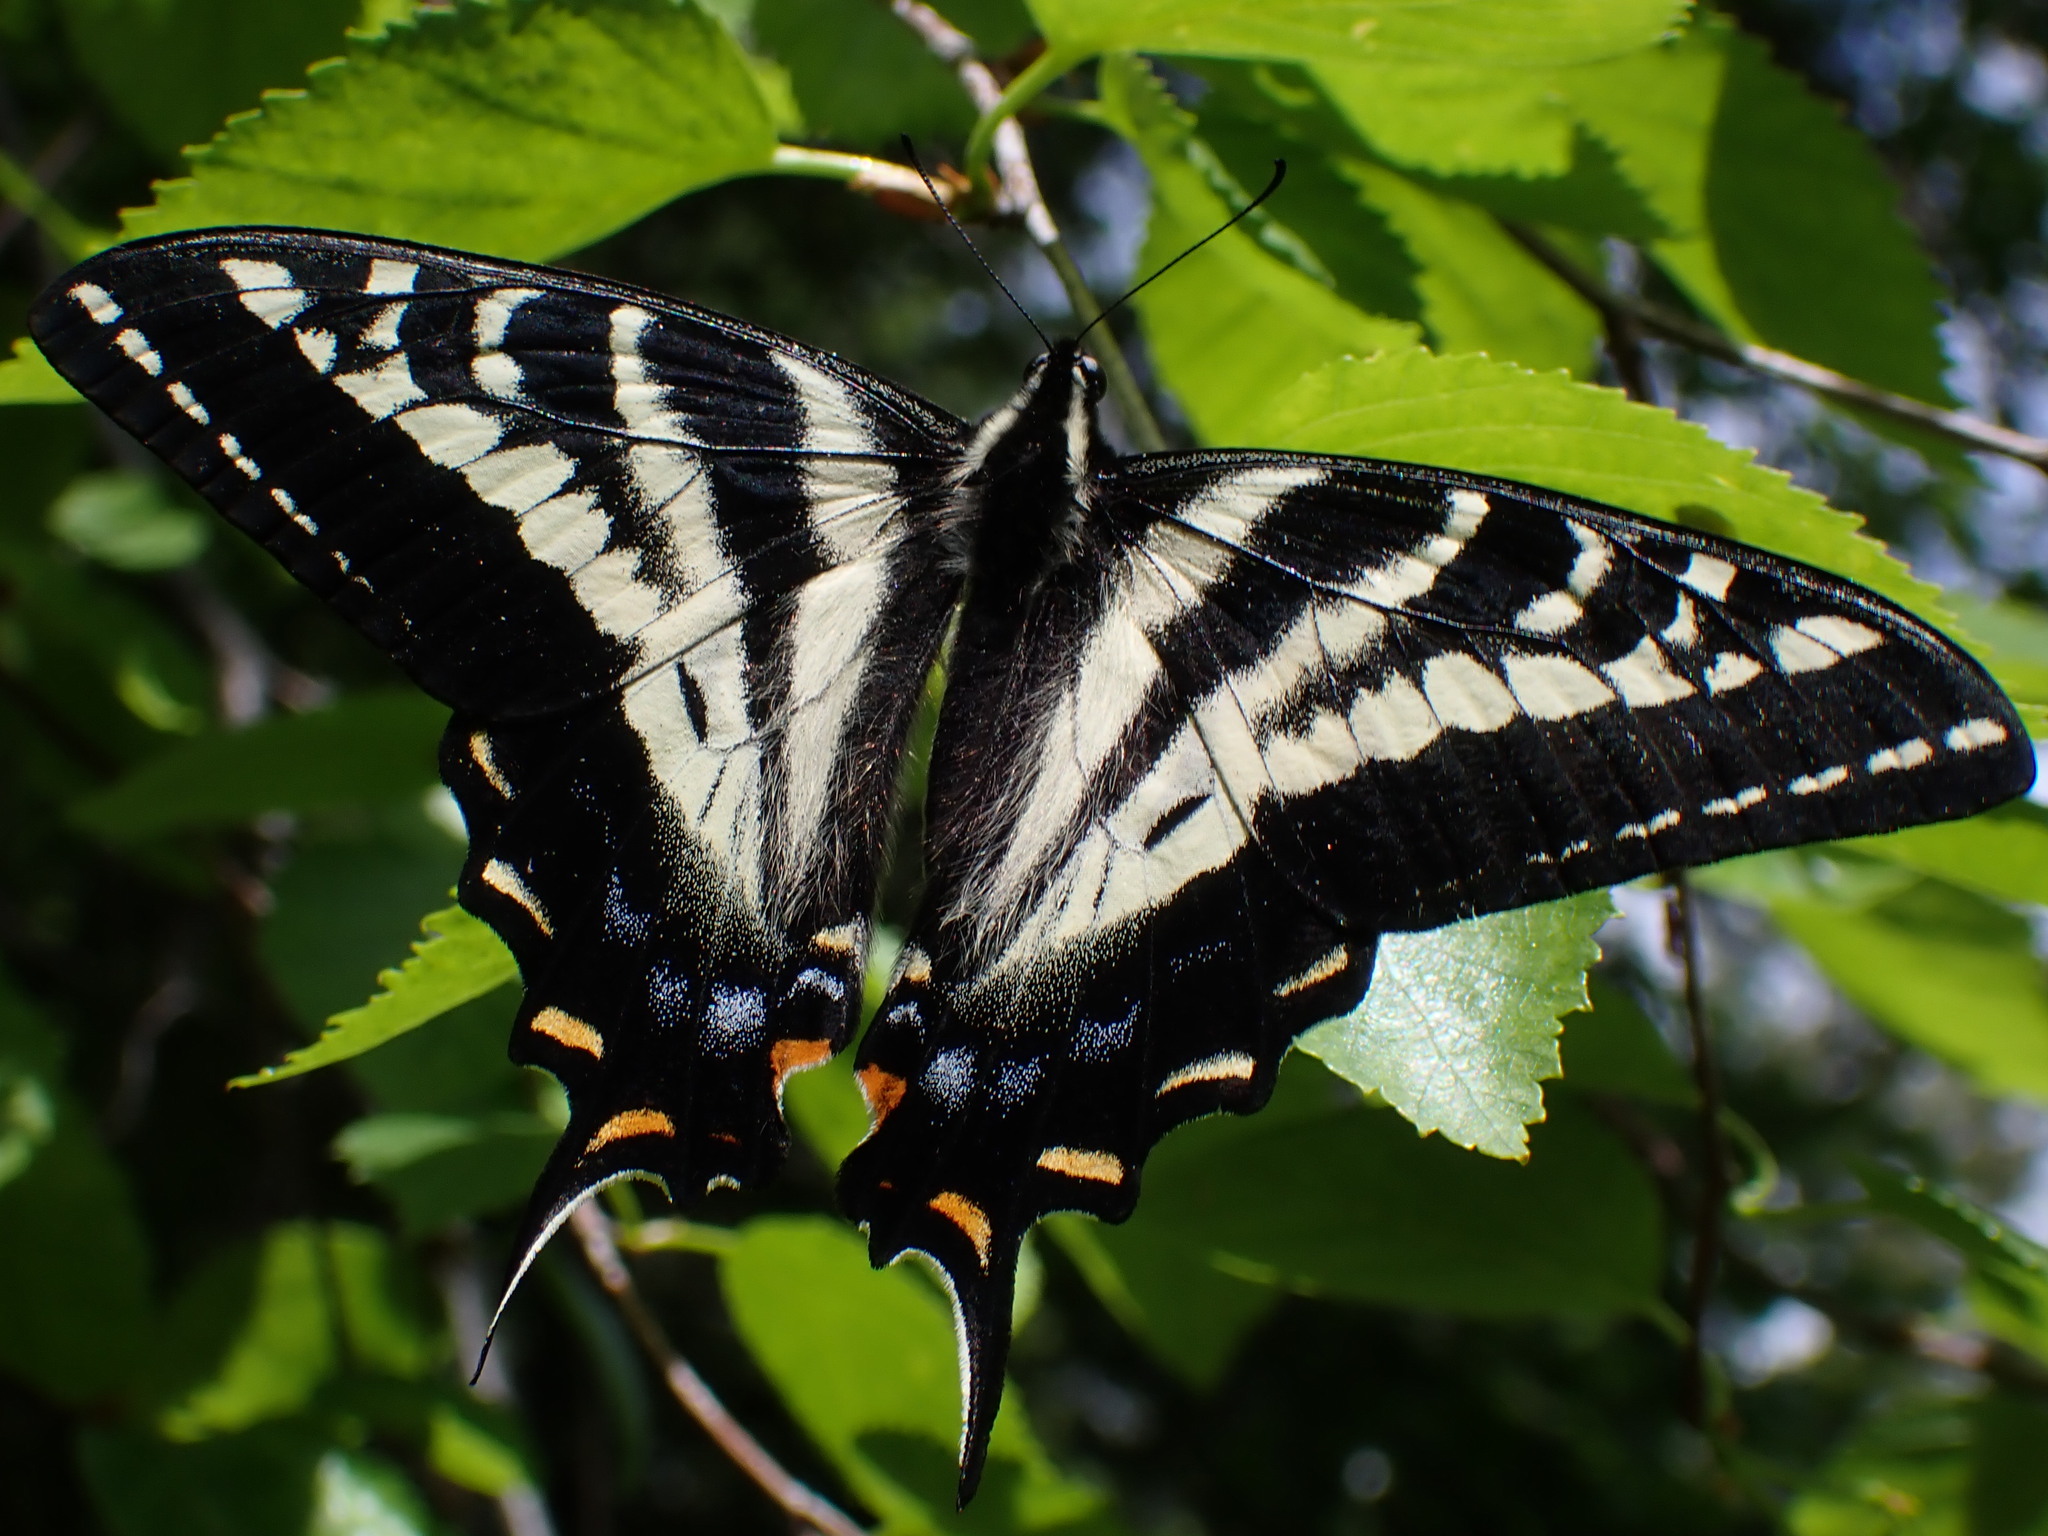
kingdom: Animalia
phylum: Arthropoda
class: Insecta
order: Lepidoptera
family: Papilionidae
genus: Papilio
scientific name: Papilio eurymedon
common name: Pale tiger swallowtail
